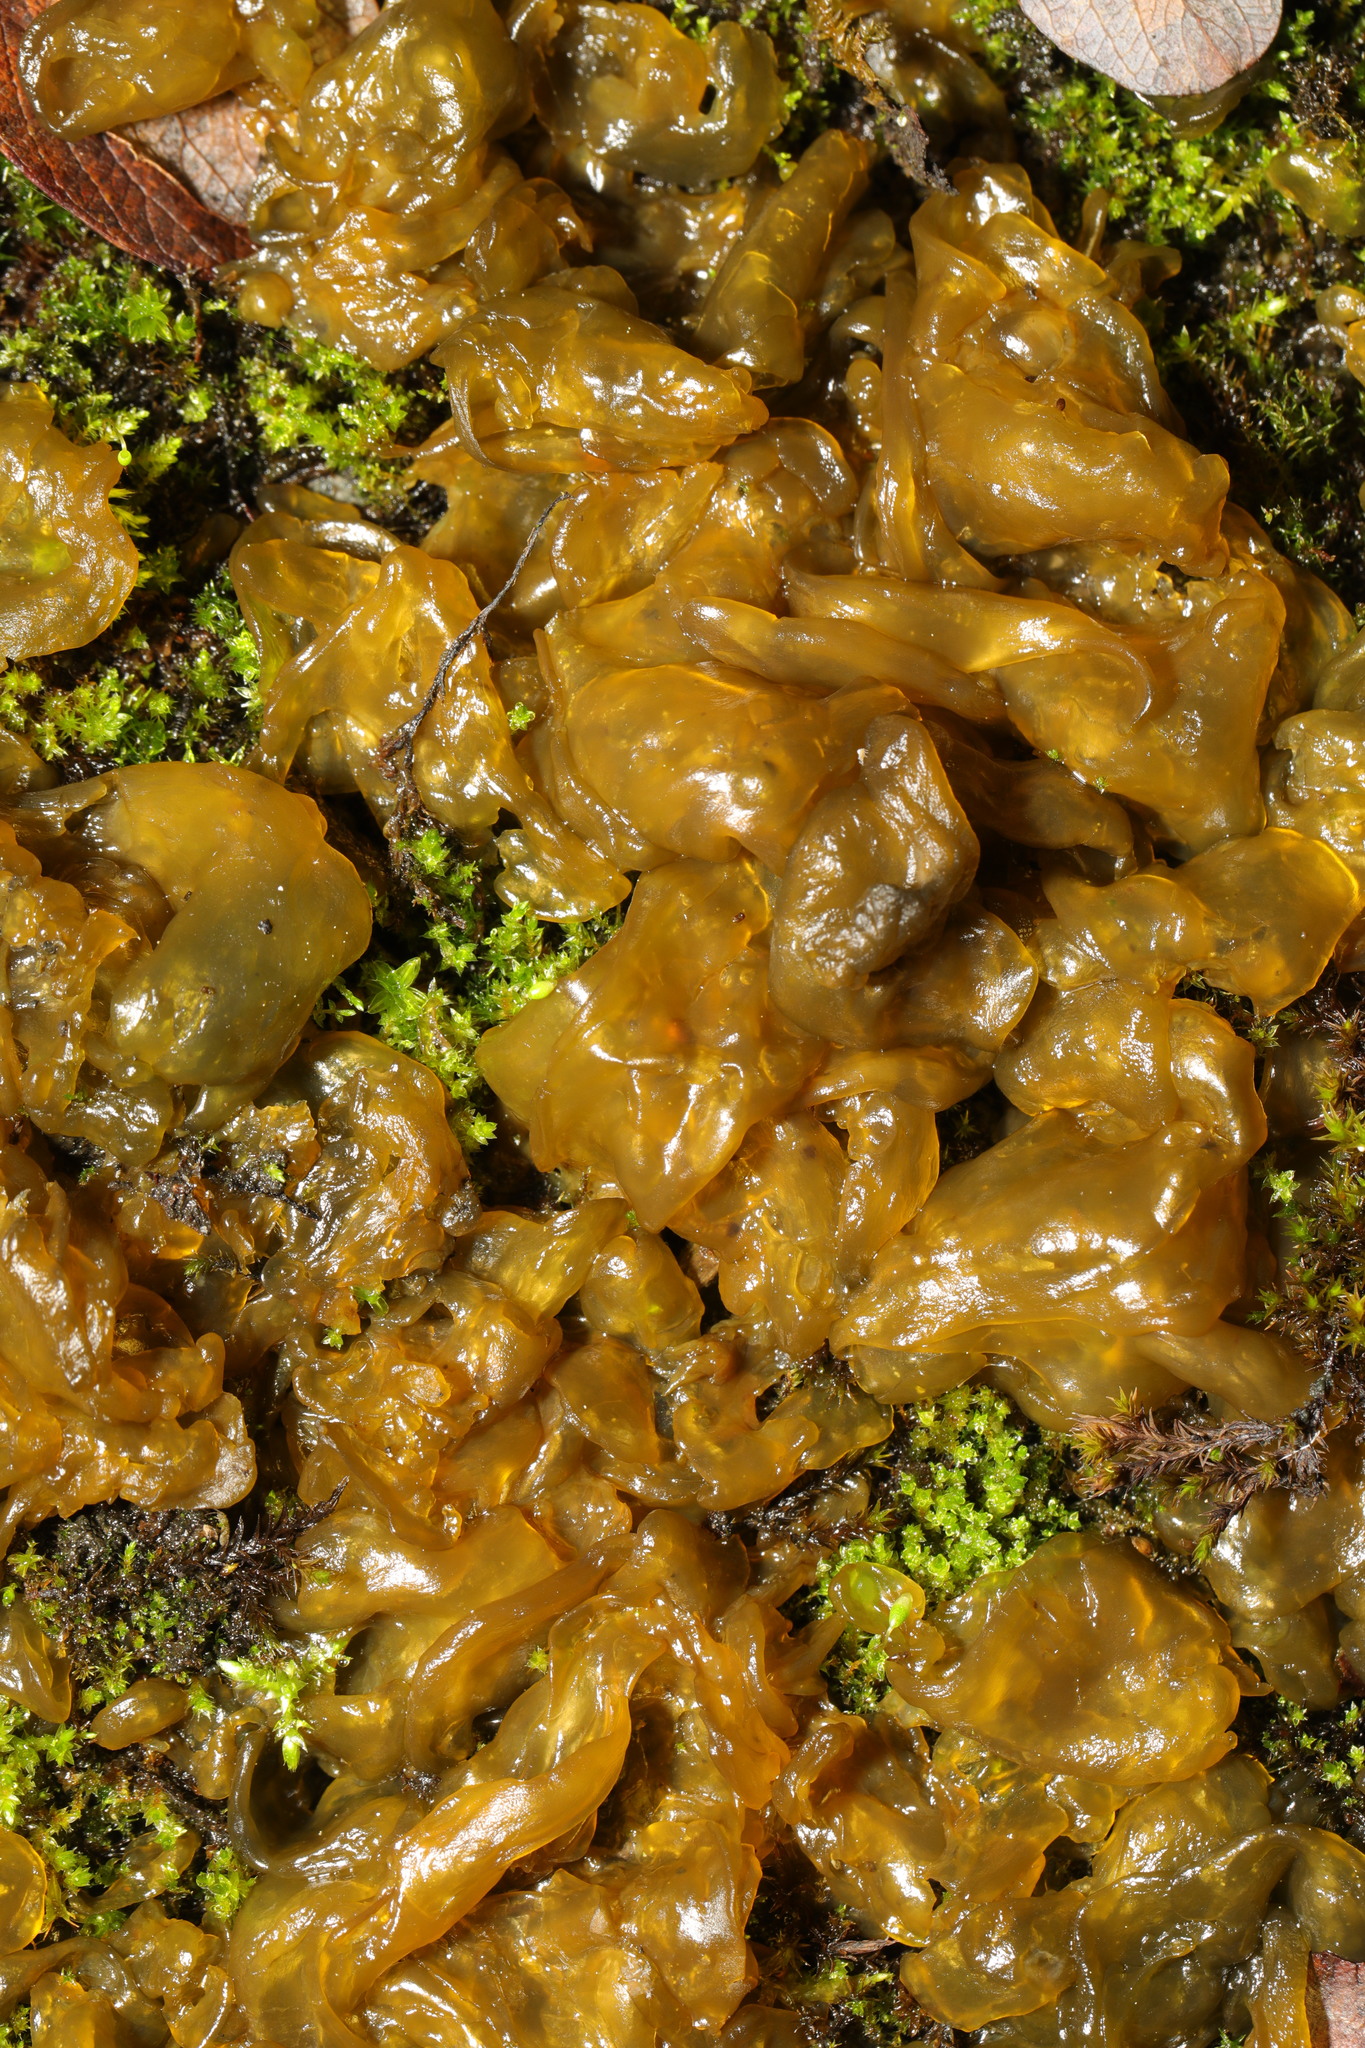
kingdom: Bacteria
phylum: Cyanobacteria
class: Cyanobacteriia
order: Cyanobacteriales
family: Nostocaceae
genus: Nostoc
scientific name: Nostoc commune
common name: Star jelly
